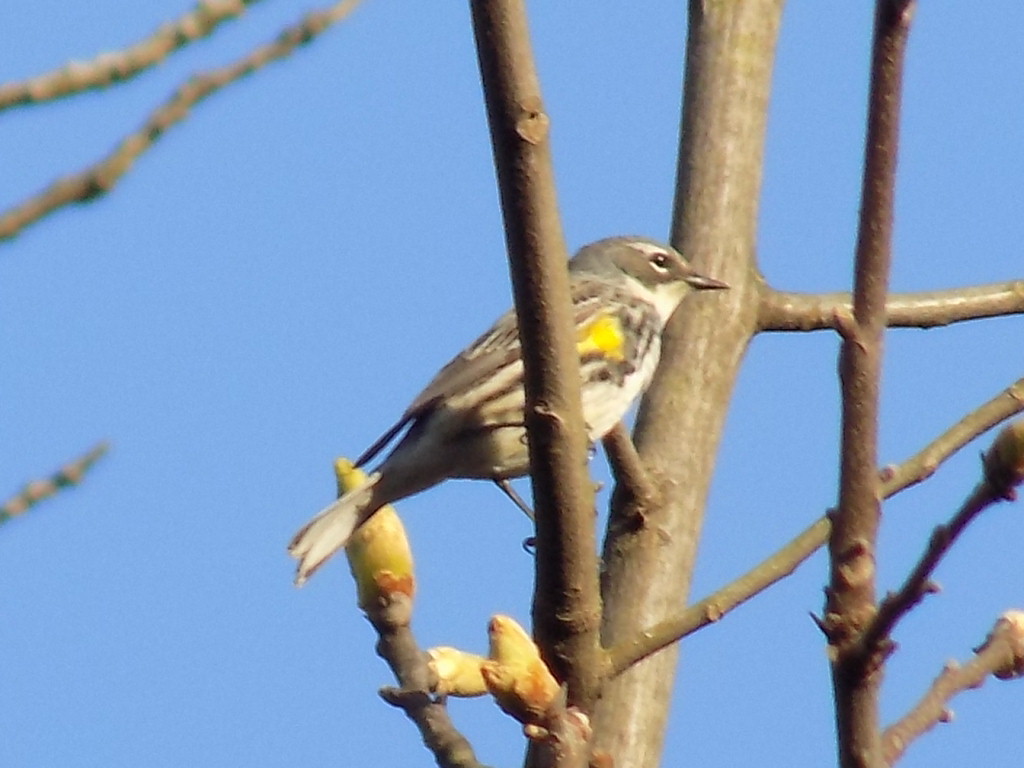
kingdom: Animalia
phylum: Chordata
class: Aves
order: Passeriformes
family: Parulidae
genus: Setophaga
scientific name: Setophaga coronata
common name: Myrtle warbler
